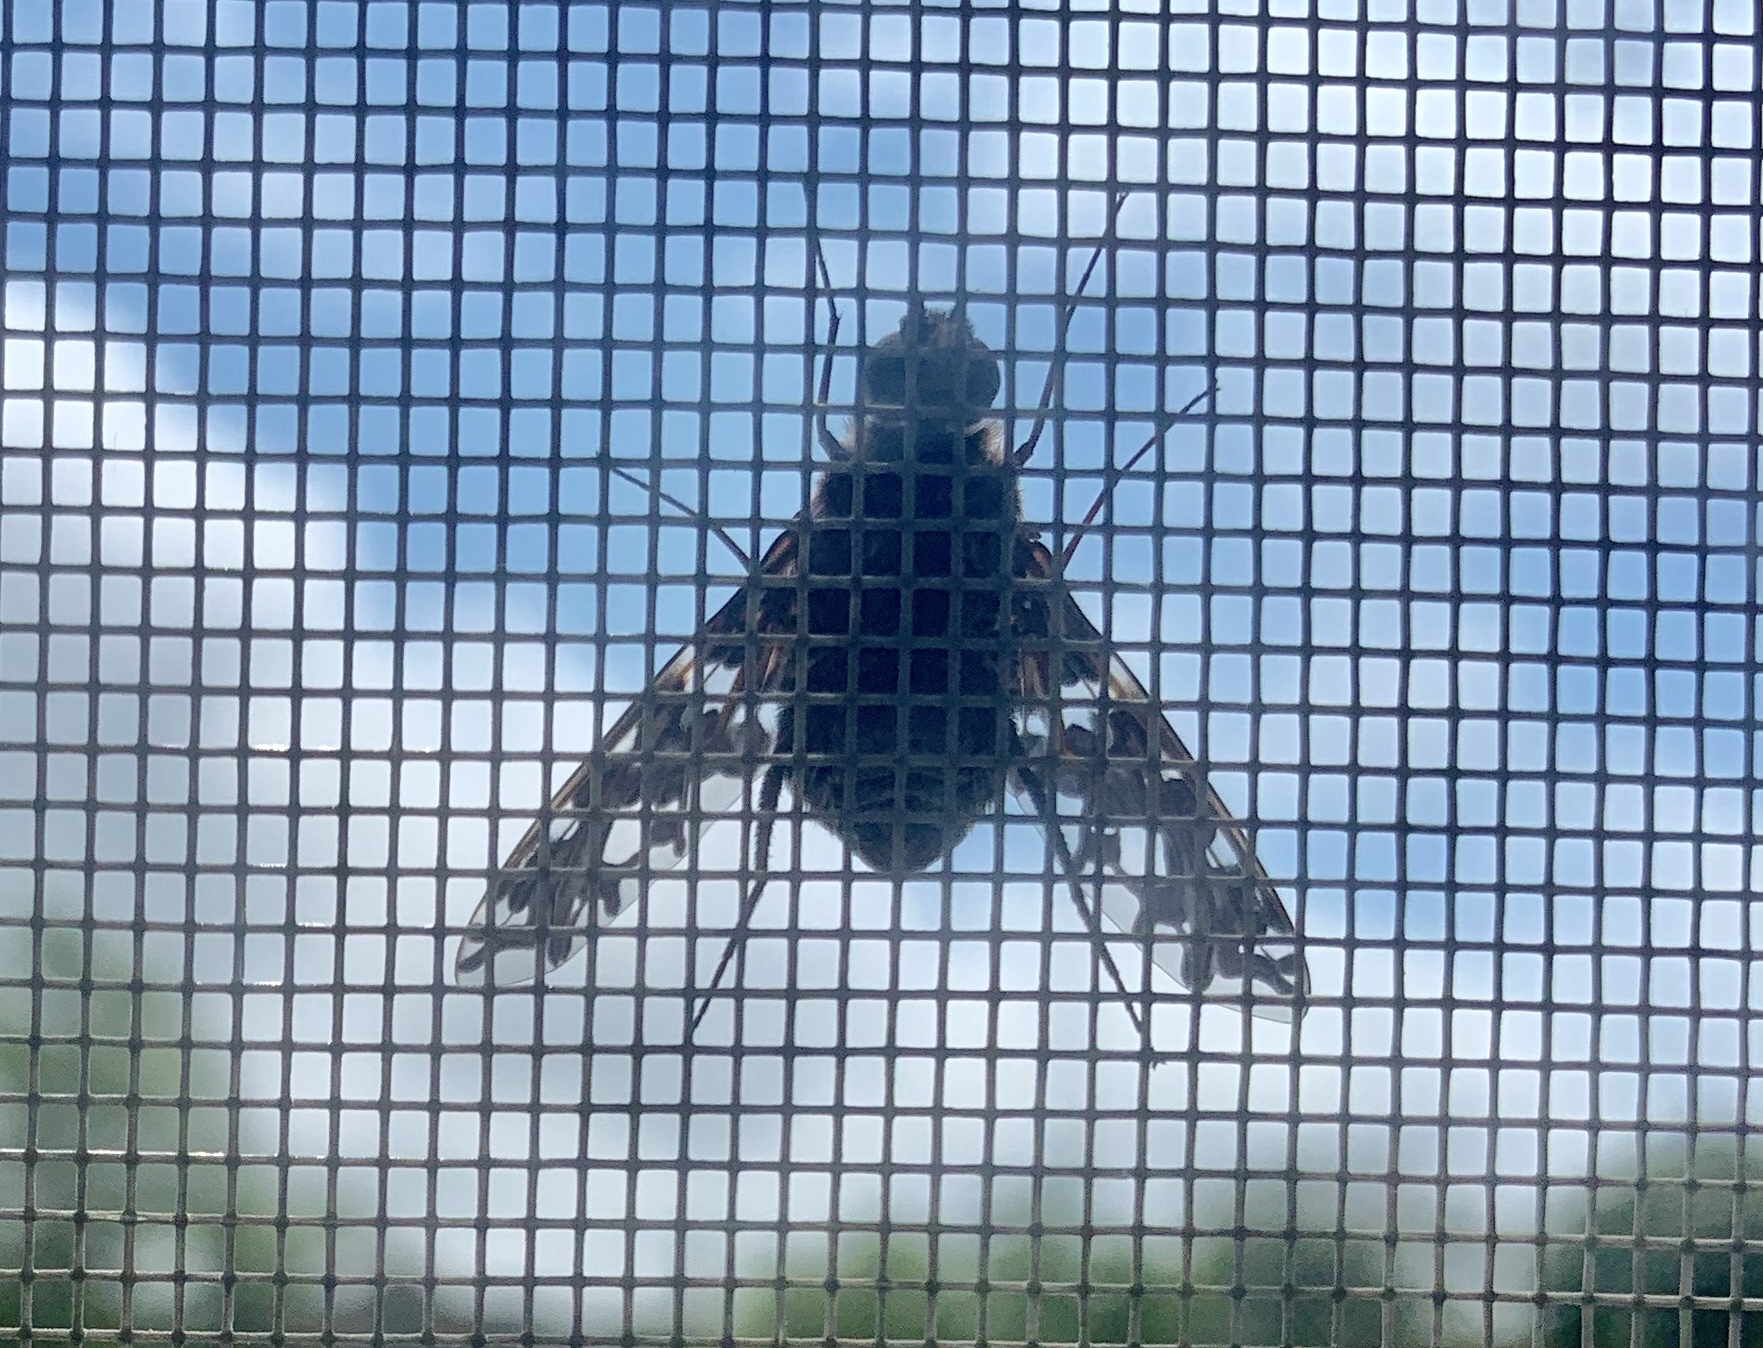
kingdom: Animalia
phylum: Arthropoda
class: Insecta
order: Diptera
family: Bombyliidae
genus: Xenox
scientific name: Xenox tigrinus
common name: Tiger bee fly
